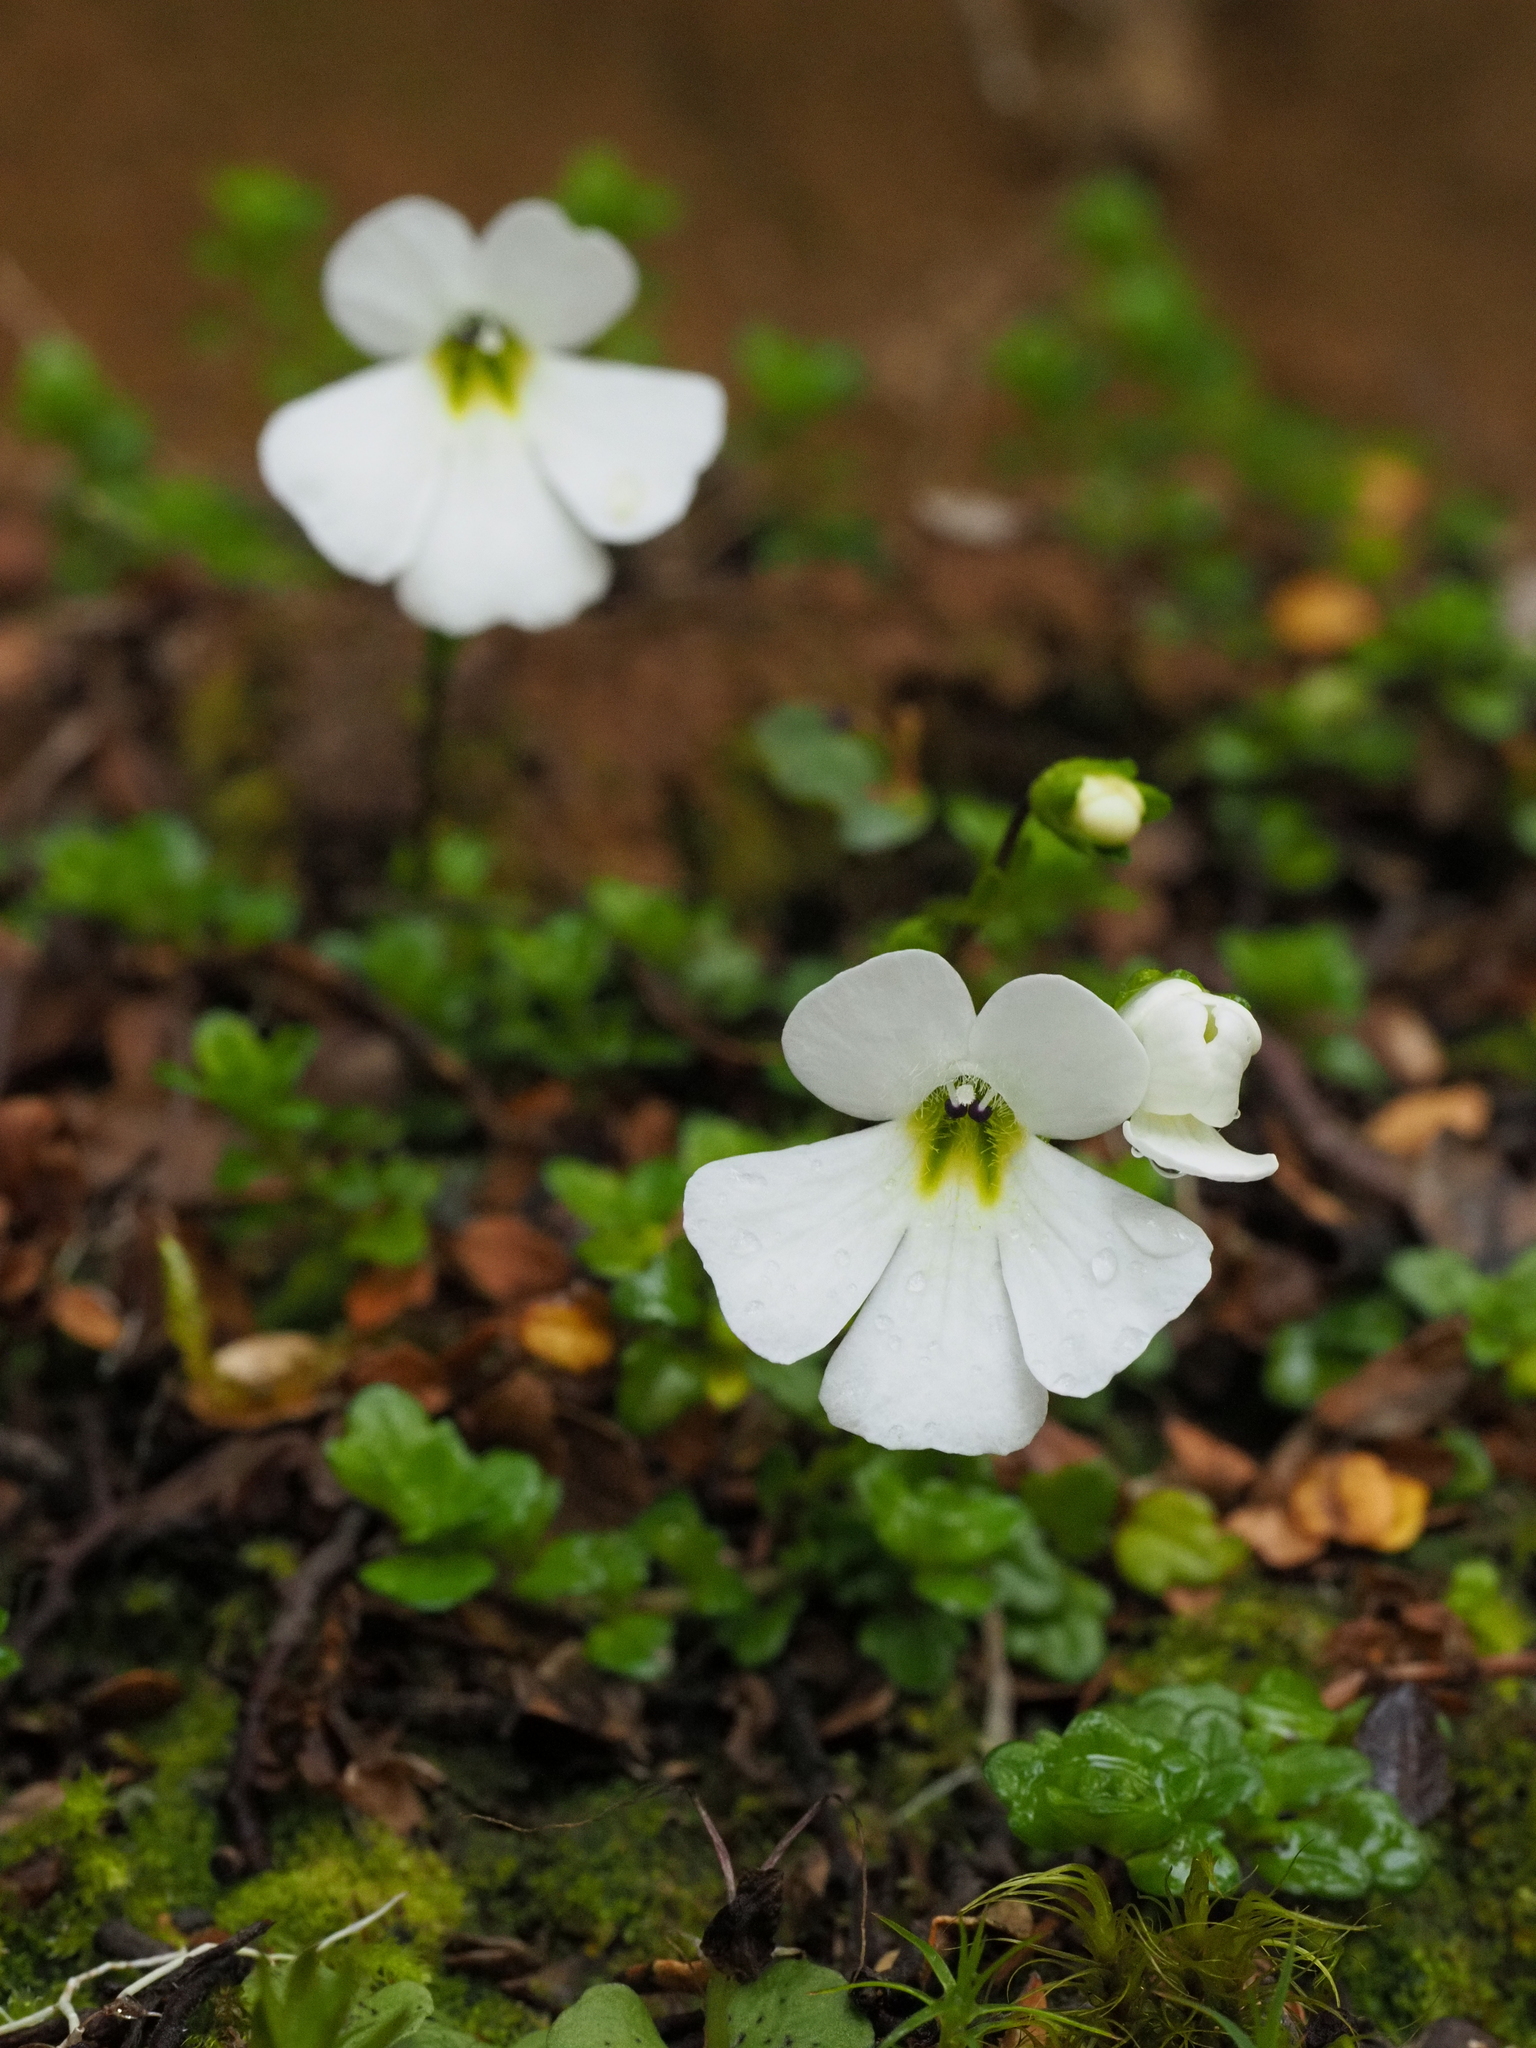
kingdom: Plantae
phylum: Tracheophyta
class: Magnoliopsida
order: Lamiales
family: Plantaginaceae
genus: Ourisia
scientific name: Ourisia caespitosa
